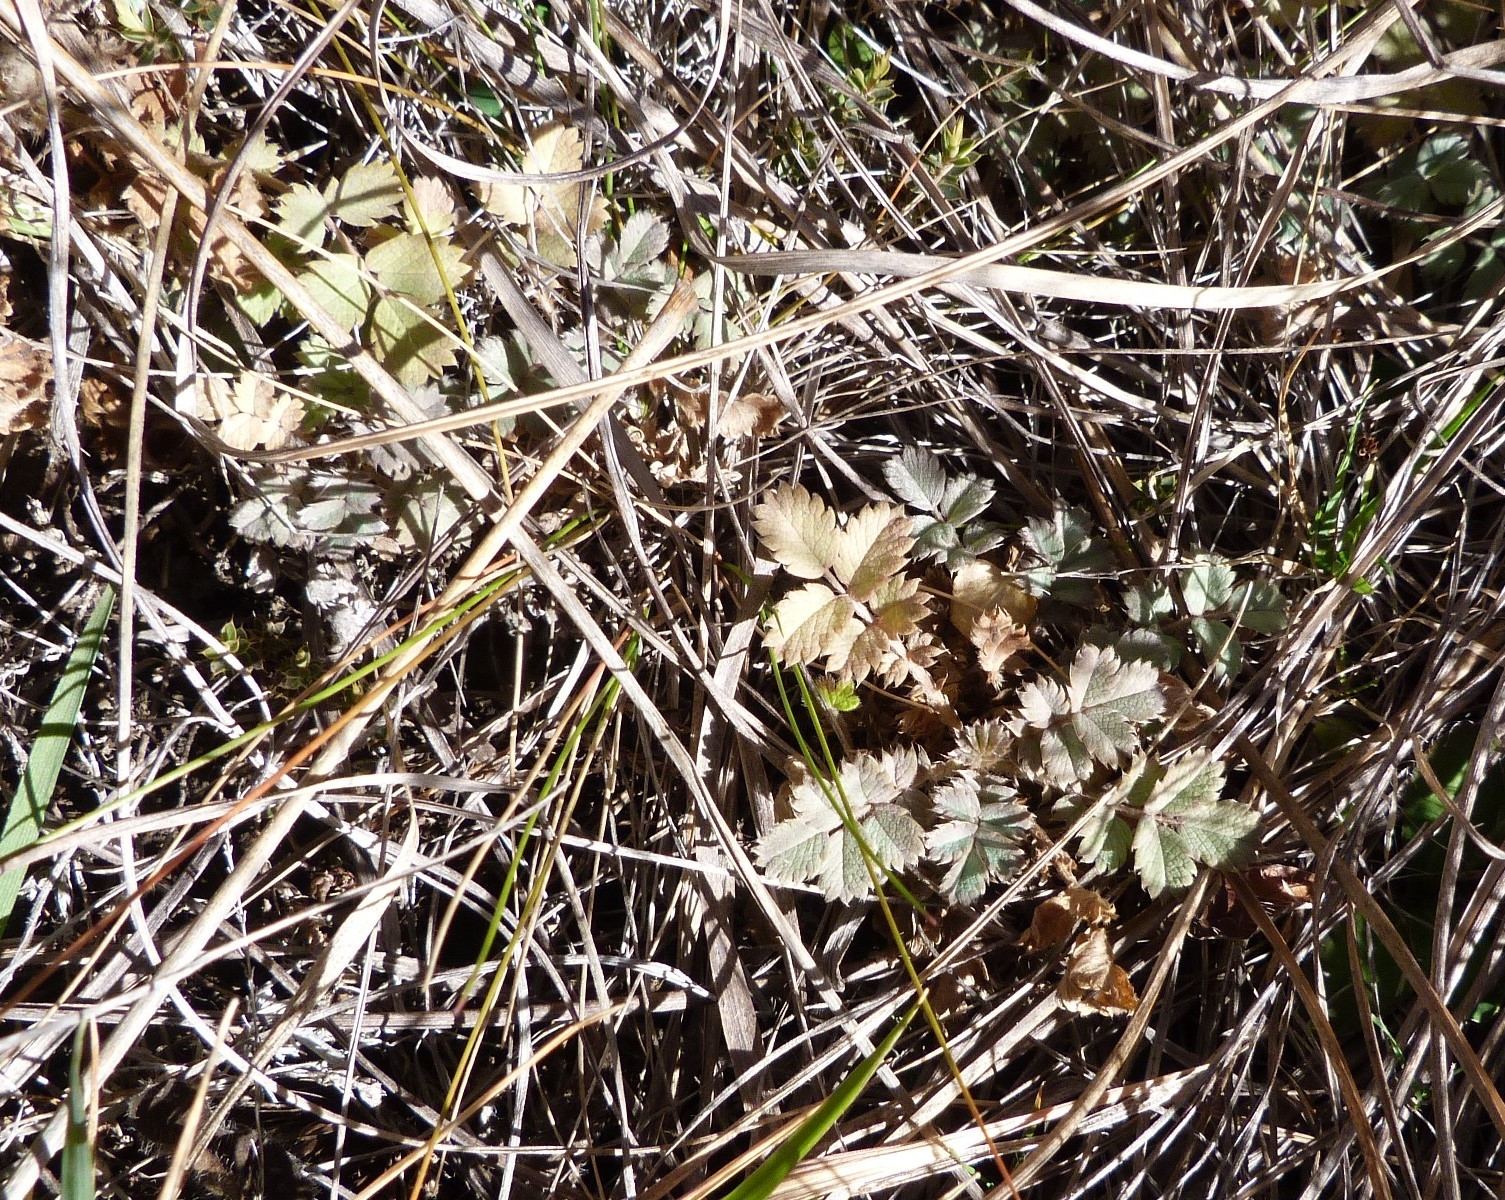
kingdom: Plantae
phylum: Tracheophyta
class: Magnoliopsida
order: Rosales
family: Rosaceae
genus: Acaena
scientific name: Acaena caesiiglauca
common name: Glaucous pirri-pirri-bur
